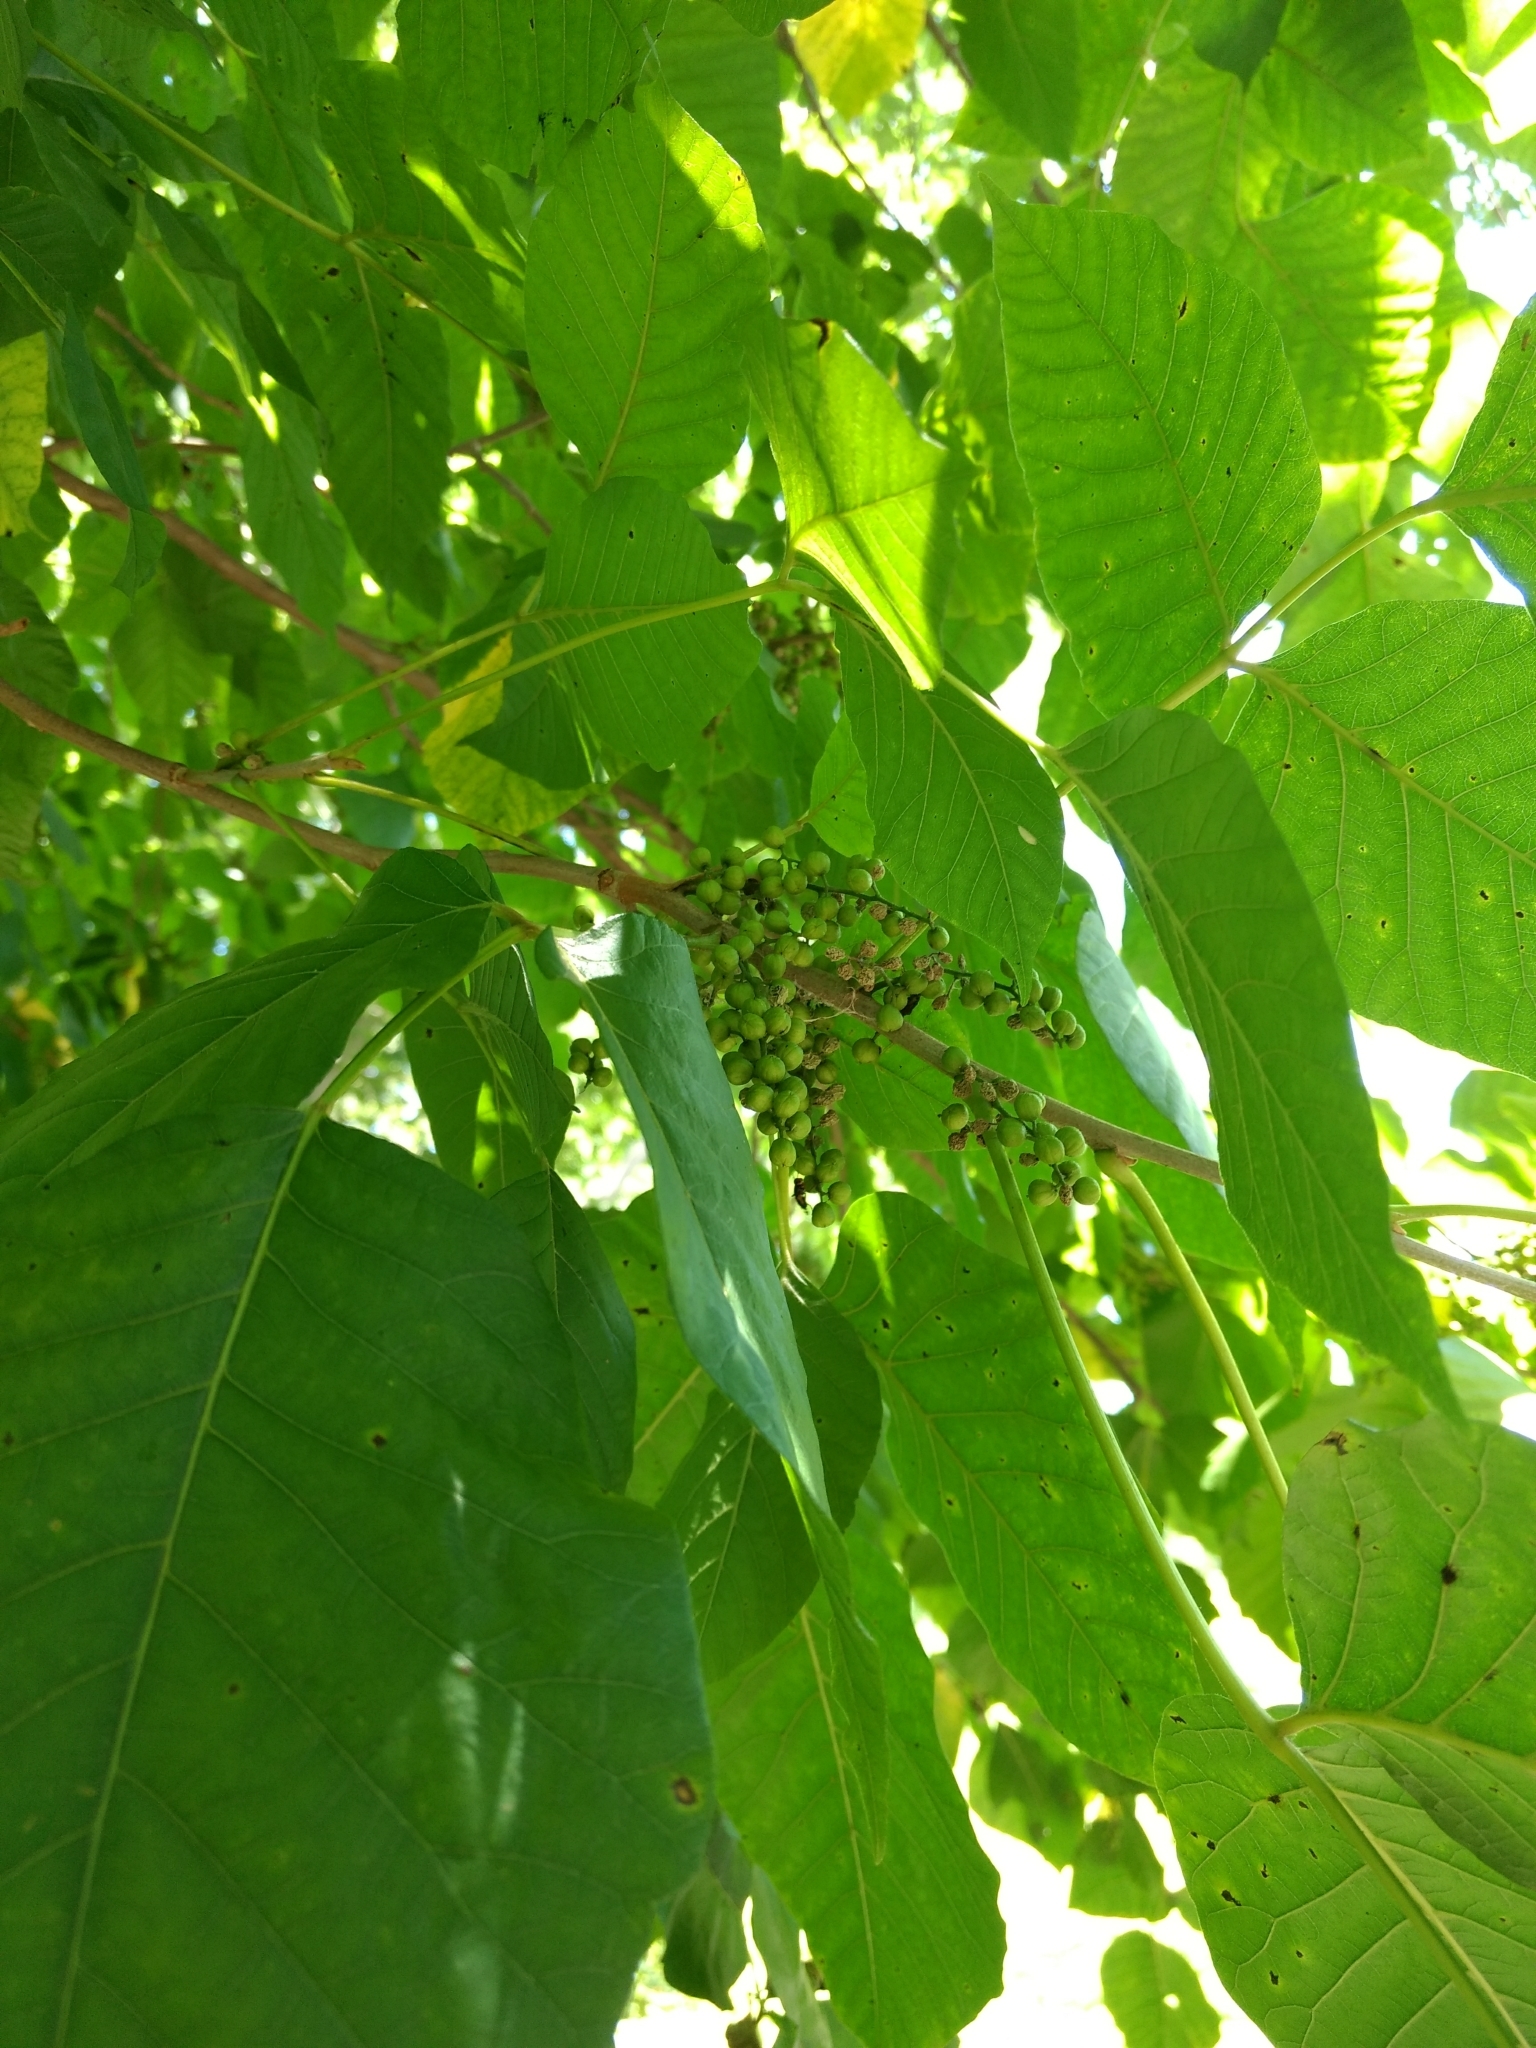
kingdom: Plantae
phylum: Tracheophyta
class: Magnoliopsida
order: Sapindales
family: Anacardiaceae
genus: Toxicodendron
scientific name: Toxicodendron radicans
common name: Poison ivy
